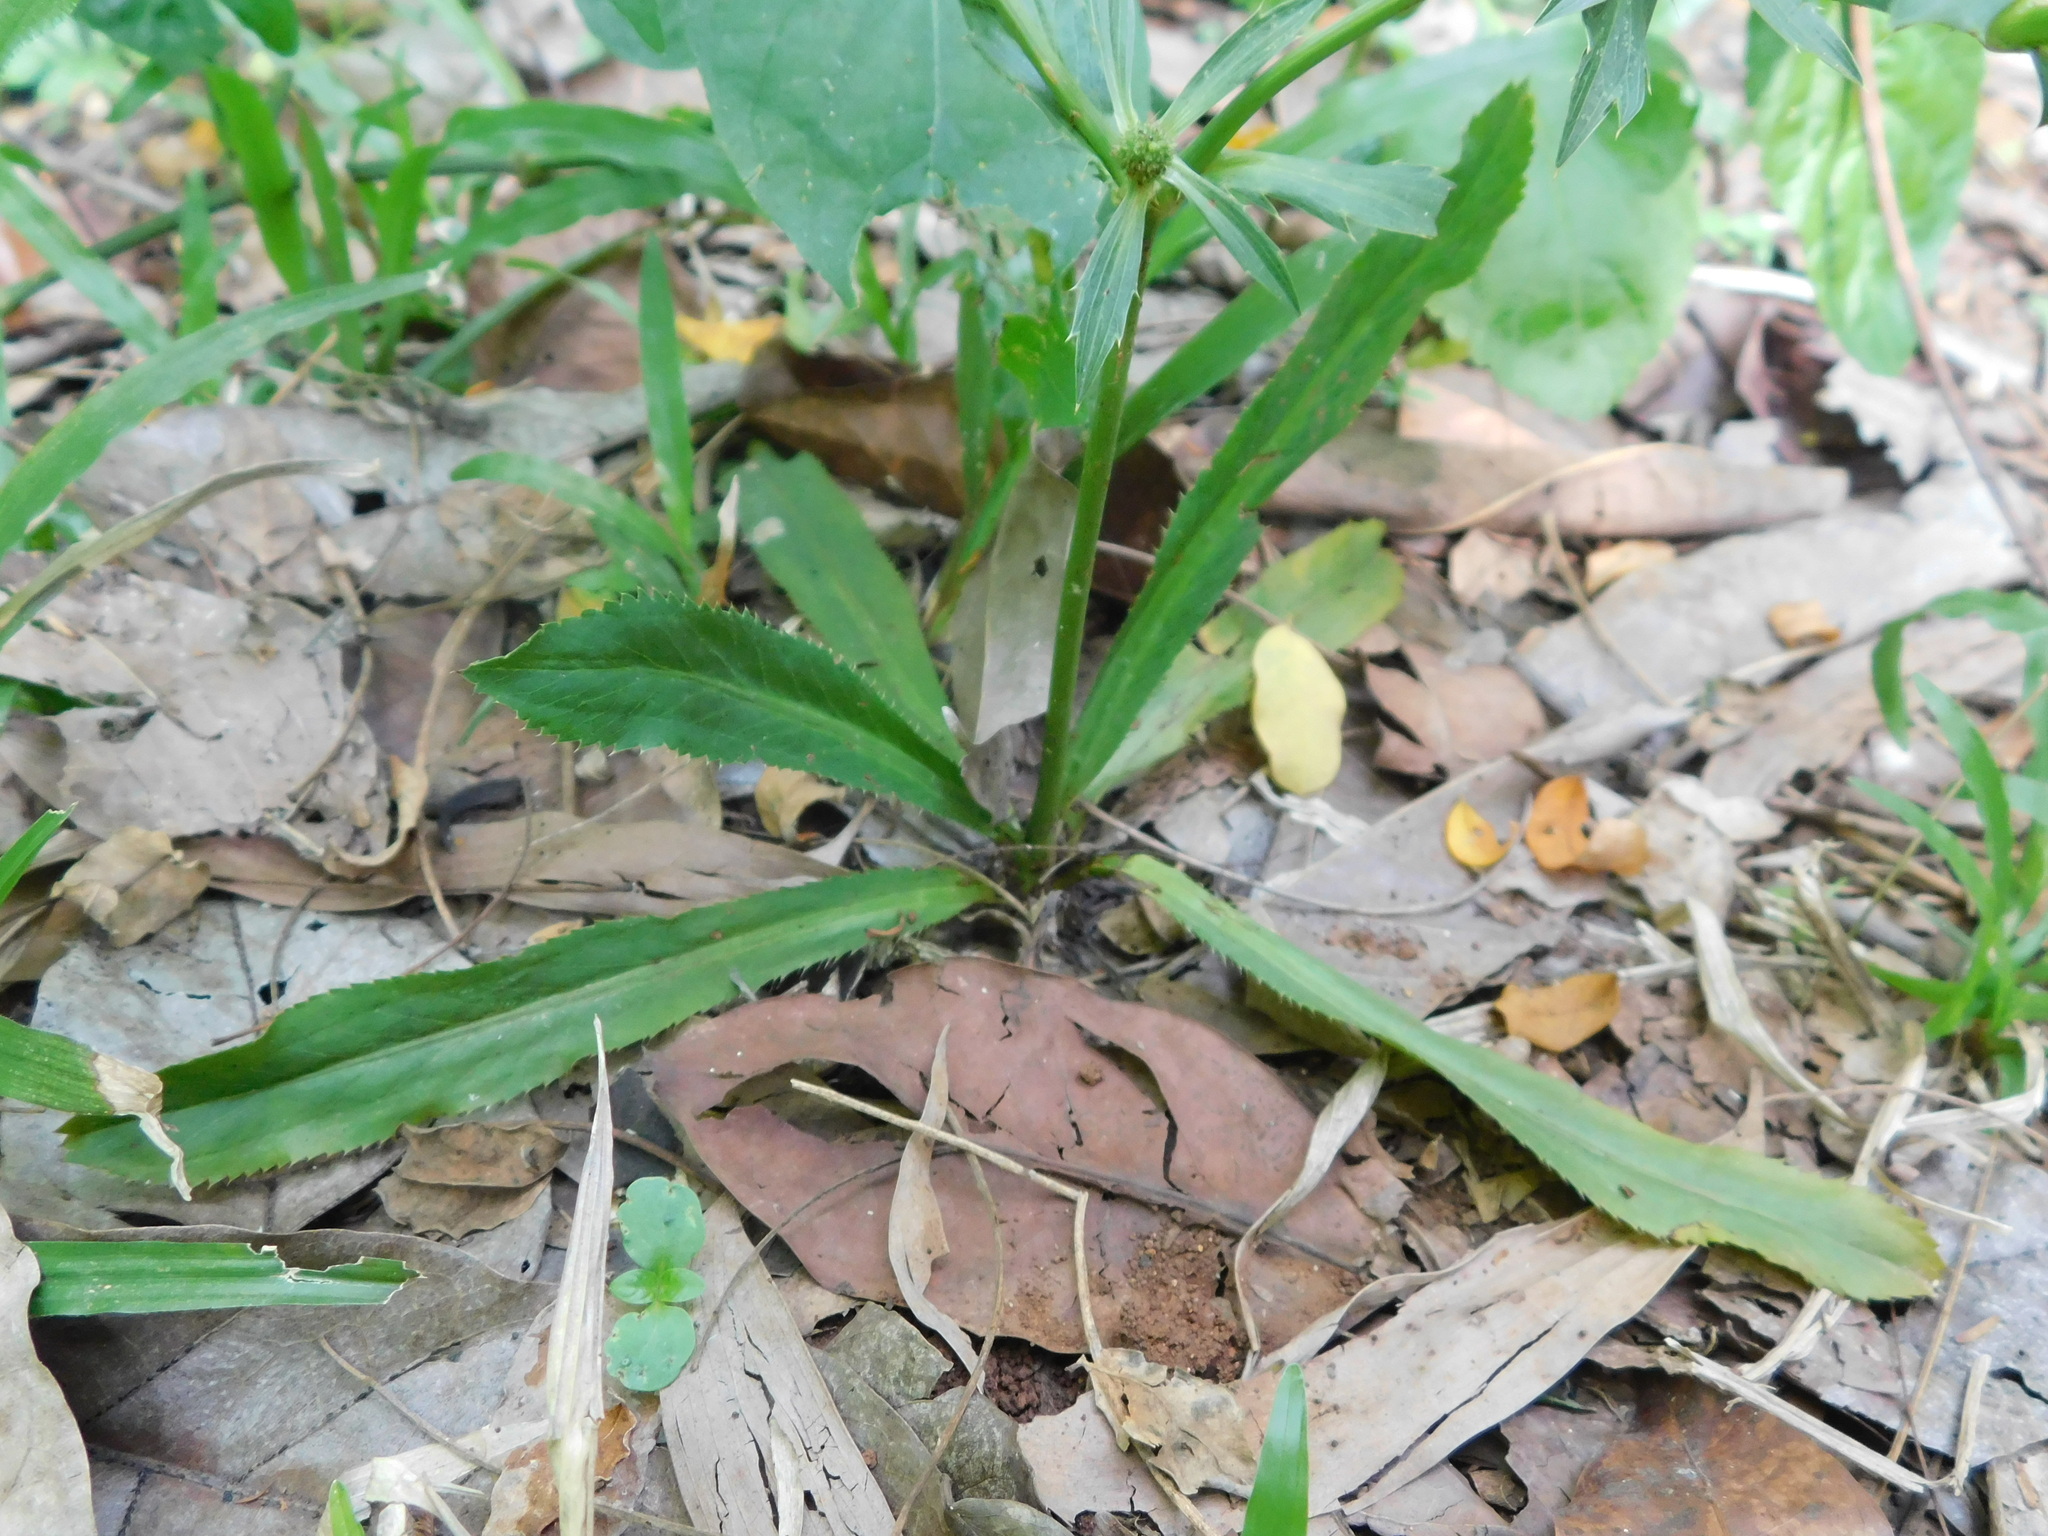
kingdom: Plantae
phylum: Tracheophyta
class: Magnoliopsida
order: Apiales
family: Apiaceae
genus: Eryngium
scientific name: Eryngium foetidum
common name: Fitweed
